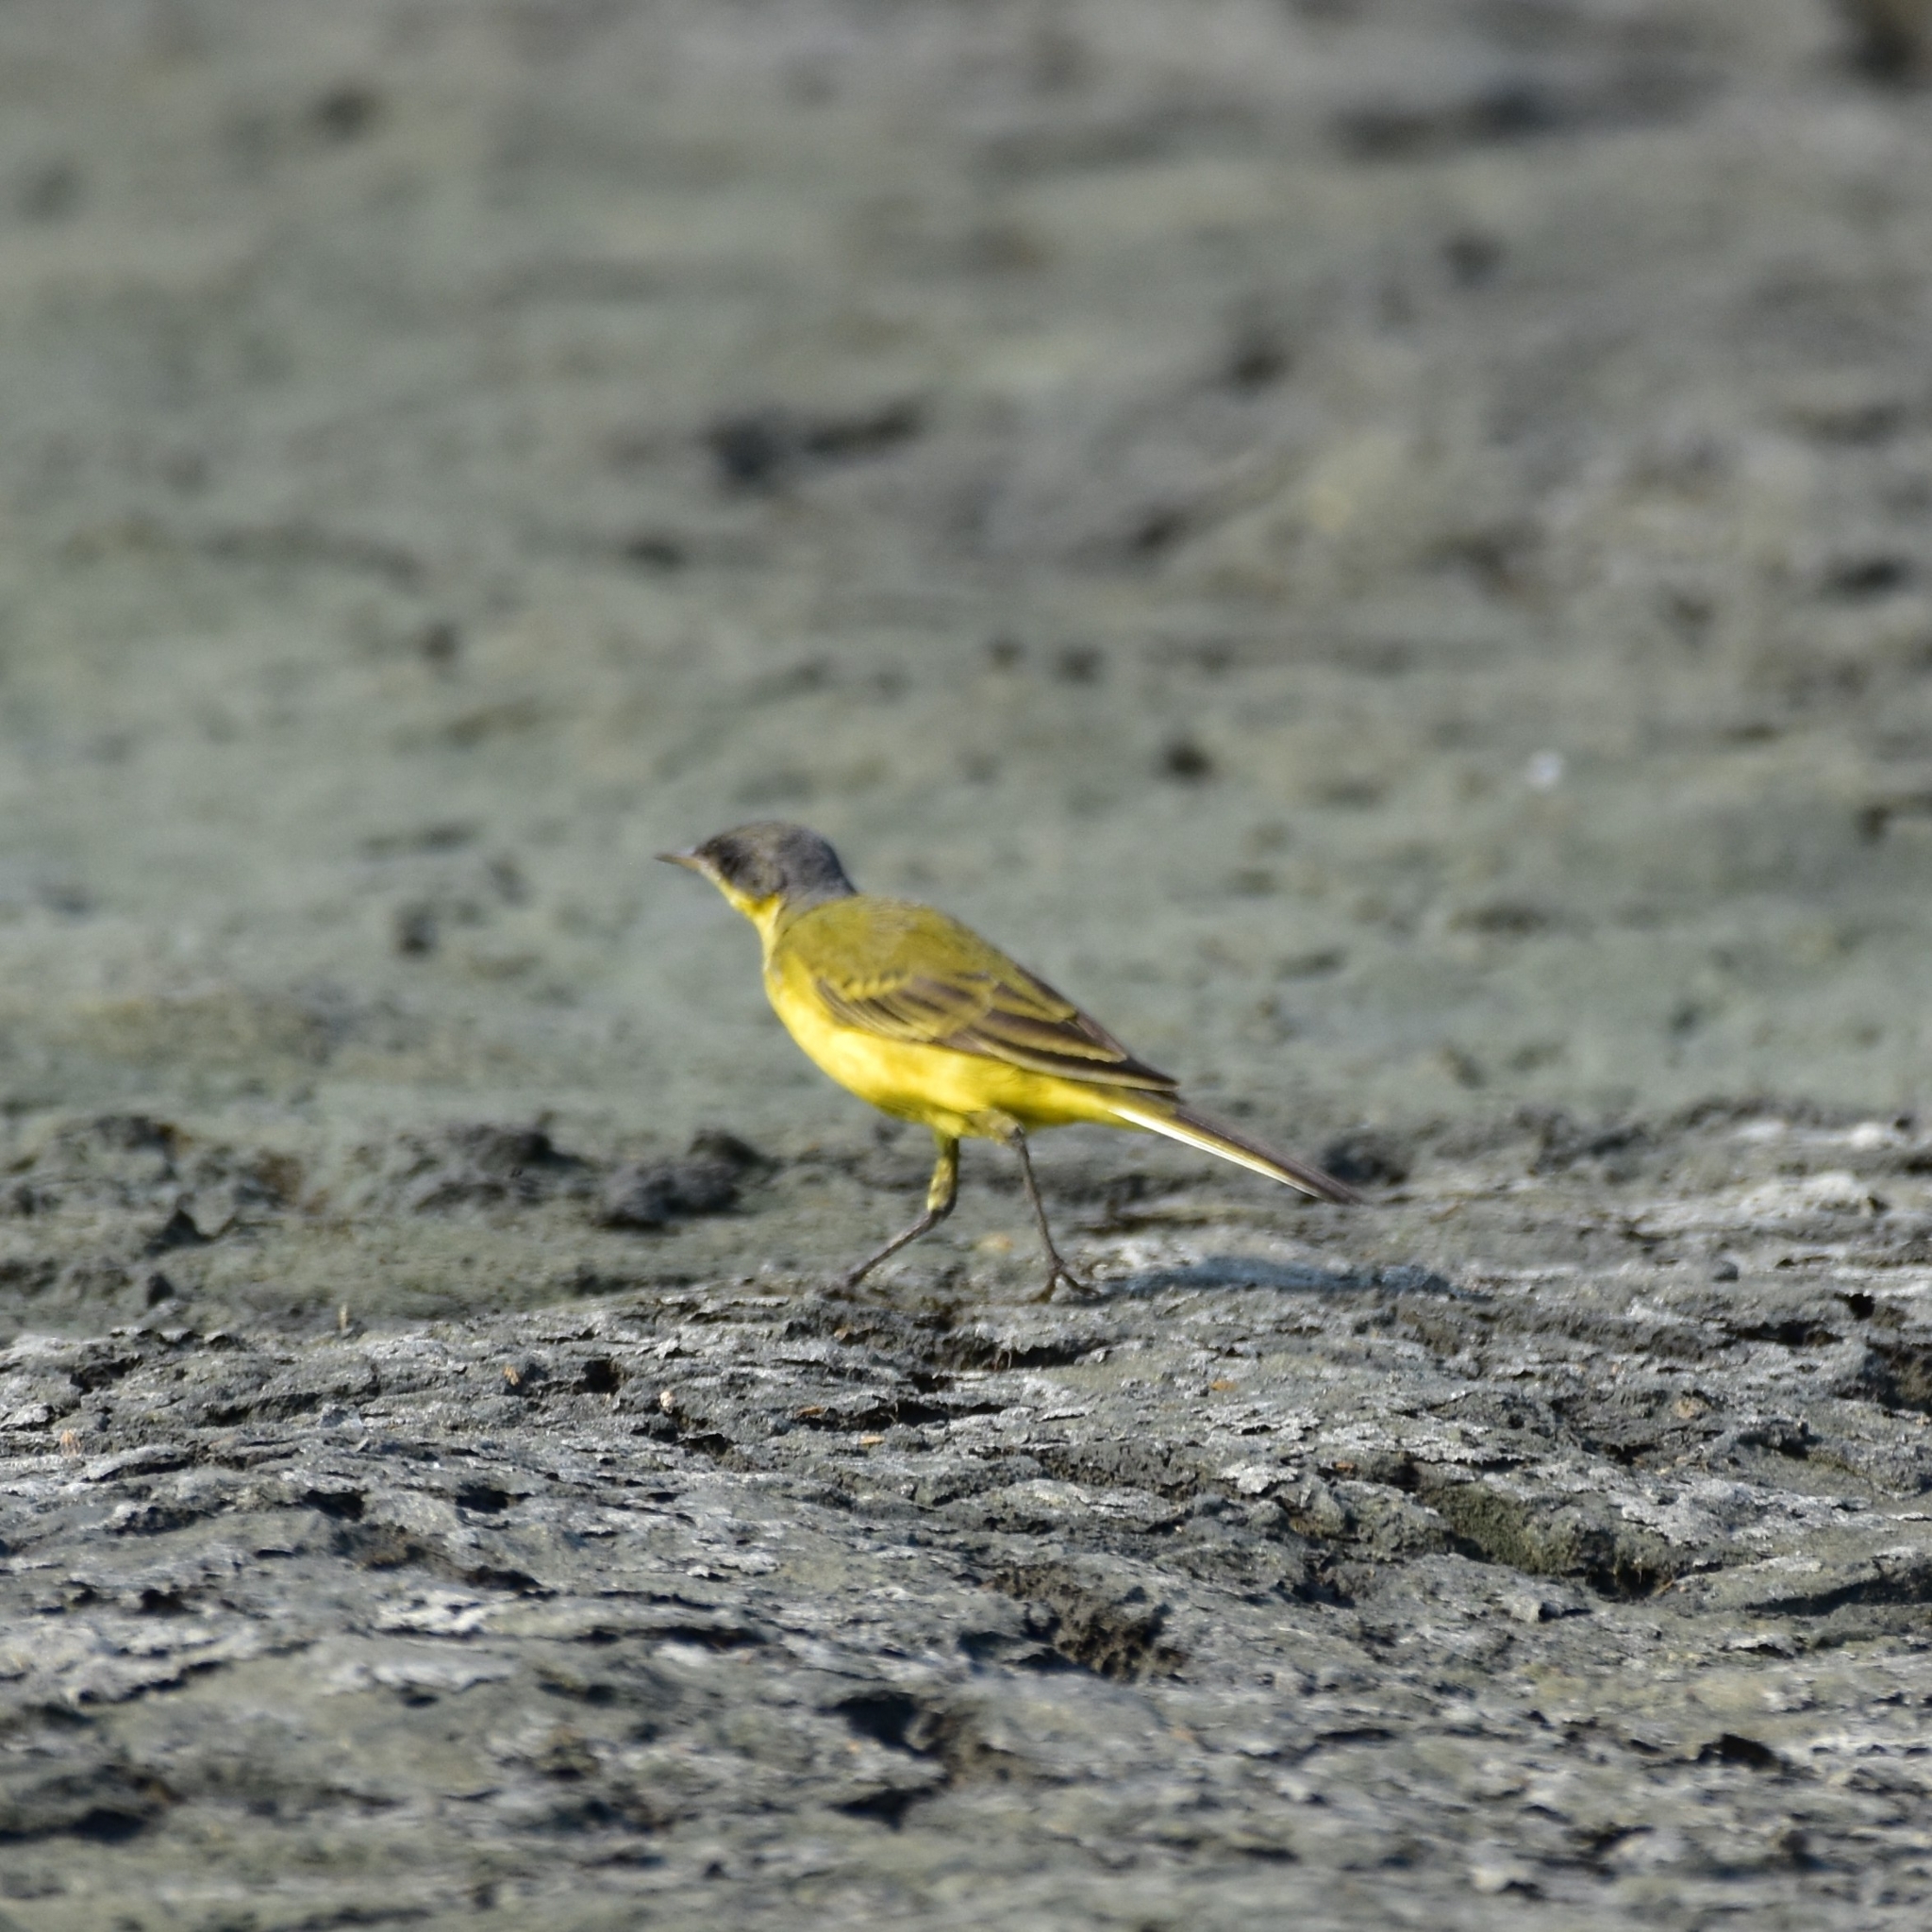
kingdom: Animalia
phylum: Chordata
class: Aves
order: Passeriformes
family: Motacillidae
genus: Motacilla
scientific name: Motacilla flava
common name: Western yellow wagtail
